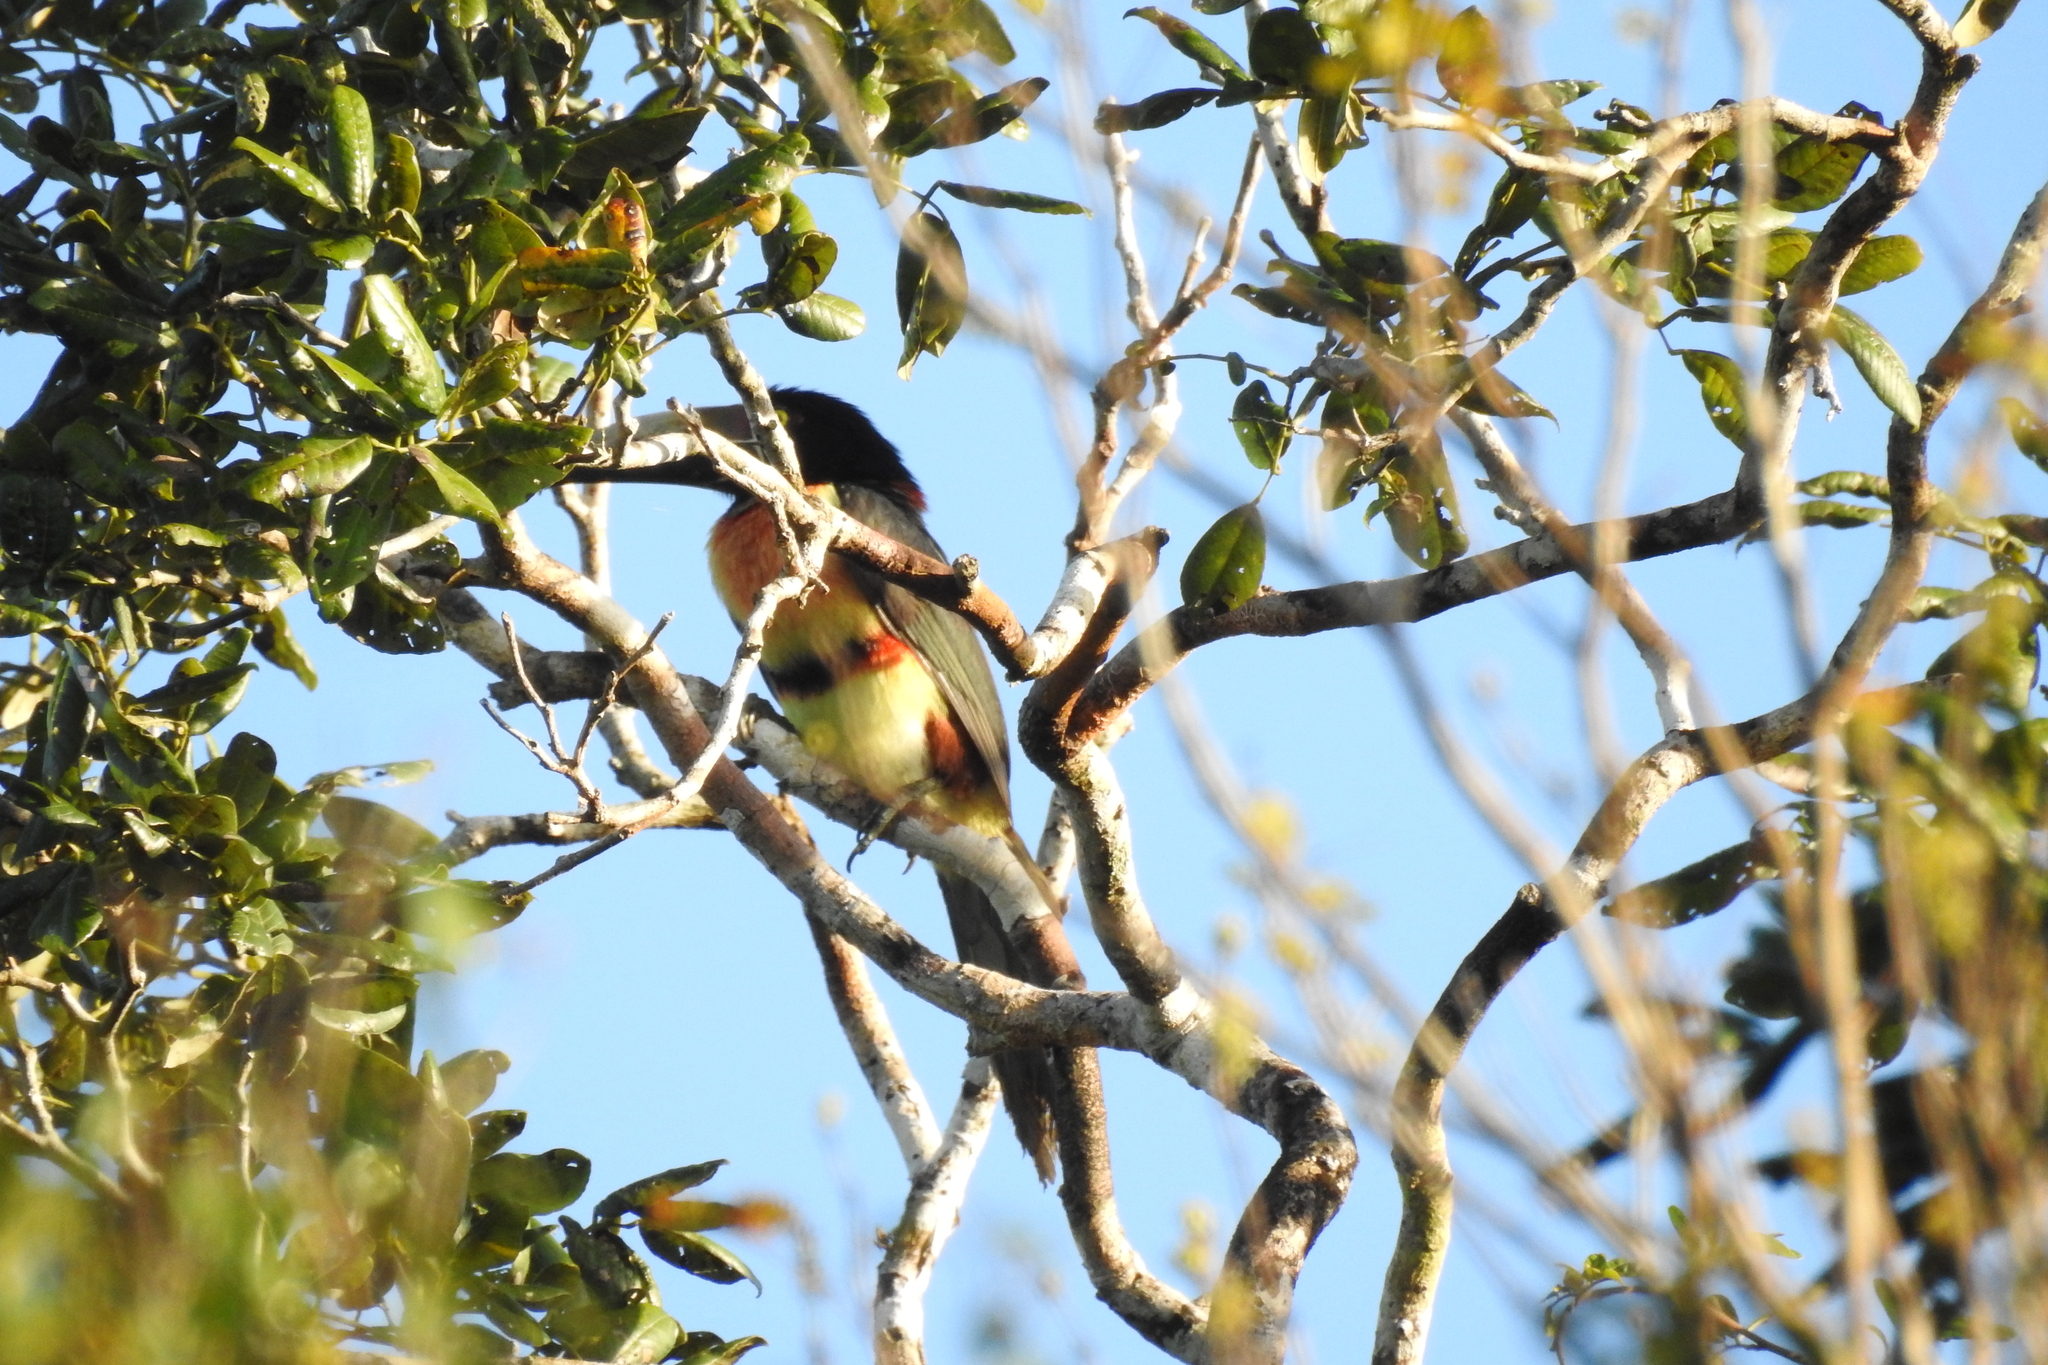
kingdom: Animalia
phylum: Chordata
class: Aves
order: Piciformes
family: Ramphastidae
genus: Pteroglossus
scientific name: Pteroglossus torquatus
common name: Collared aracari
